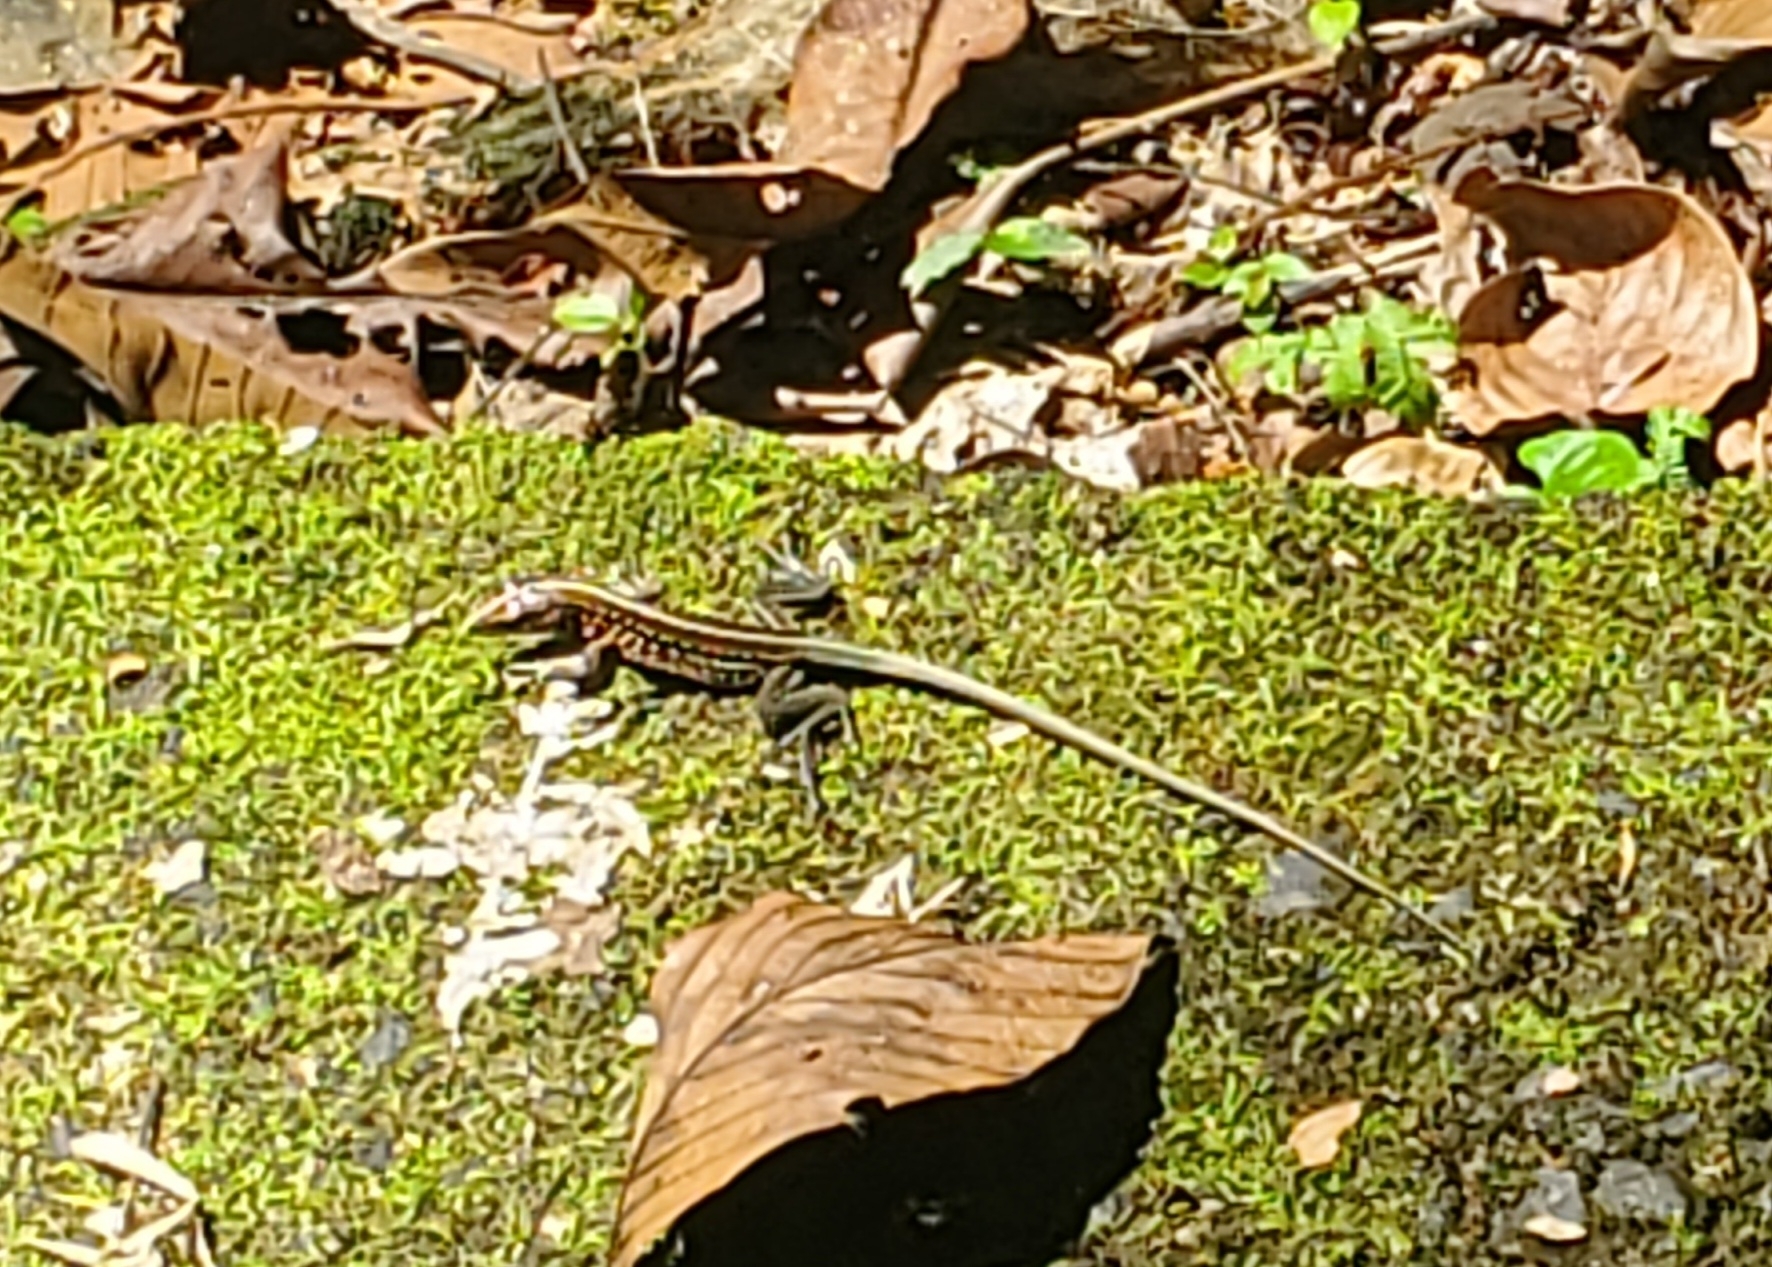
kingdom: Animalia
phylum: Chordata
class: Squamata
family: Teiidae
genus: Holcosus
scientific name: Holcosus festivus
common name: Middle american ameiva
